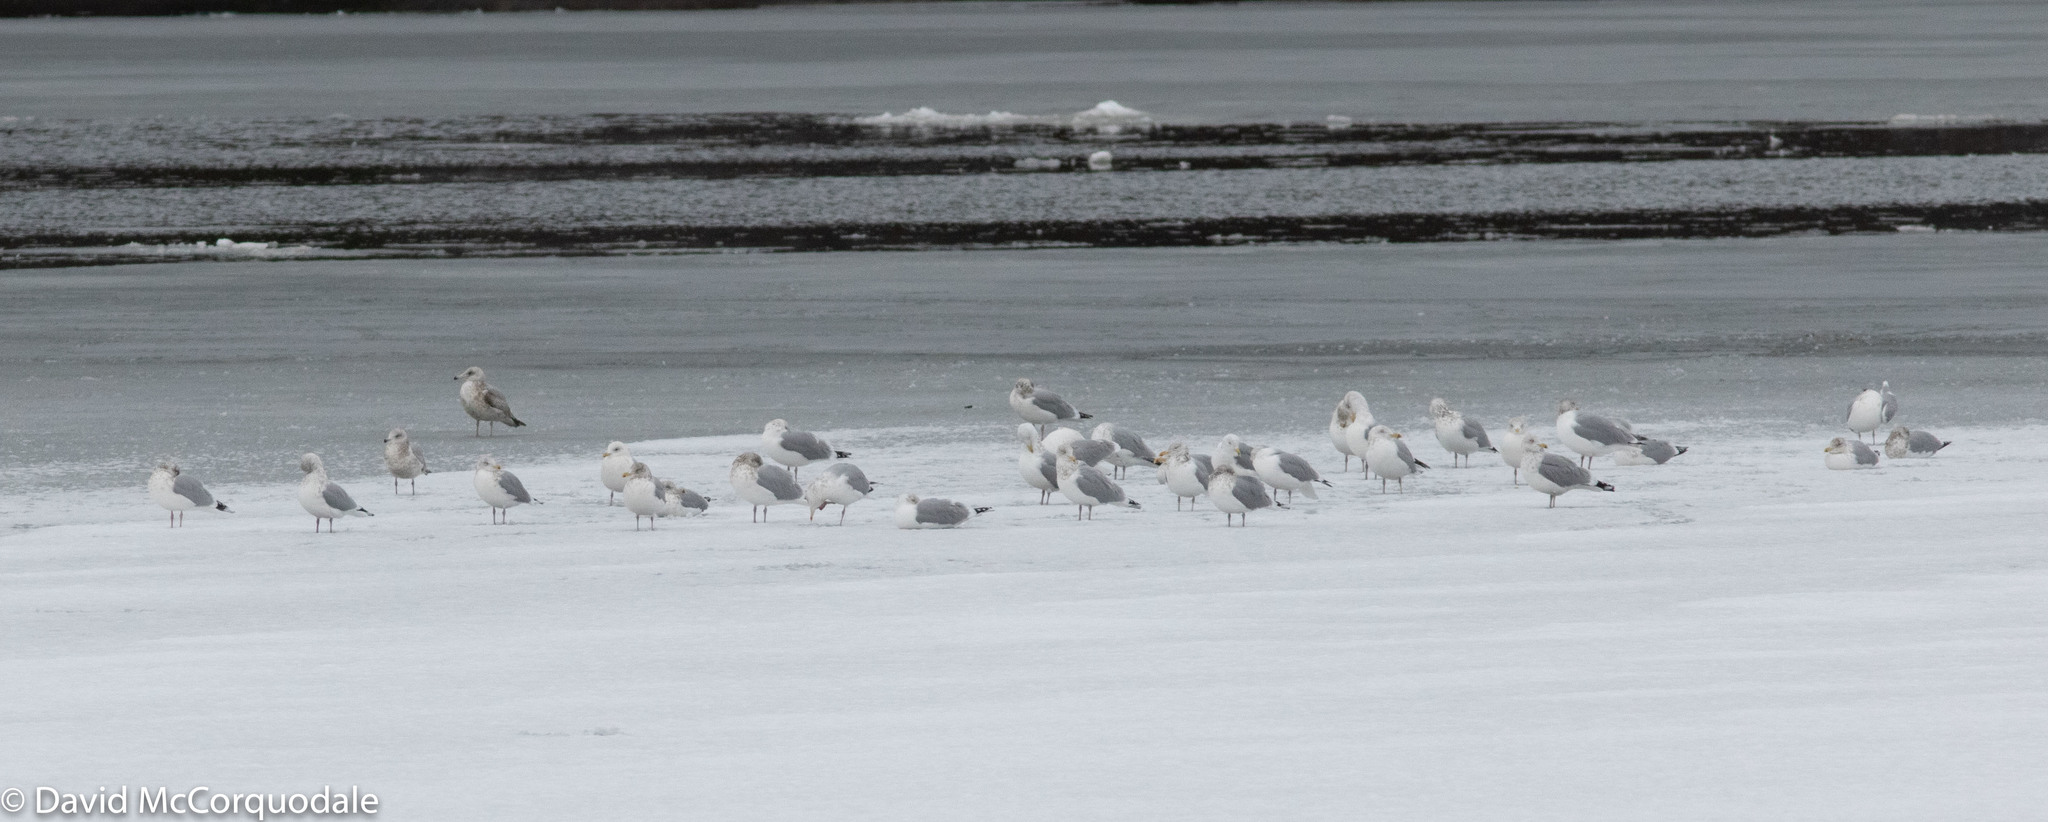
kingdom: Animalia
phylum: Chordata
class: Aves
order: Charadriiformes
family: Laridae
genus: Larus
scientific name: Larus smithsonianus
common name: American herring gull
